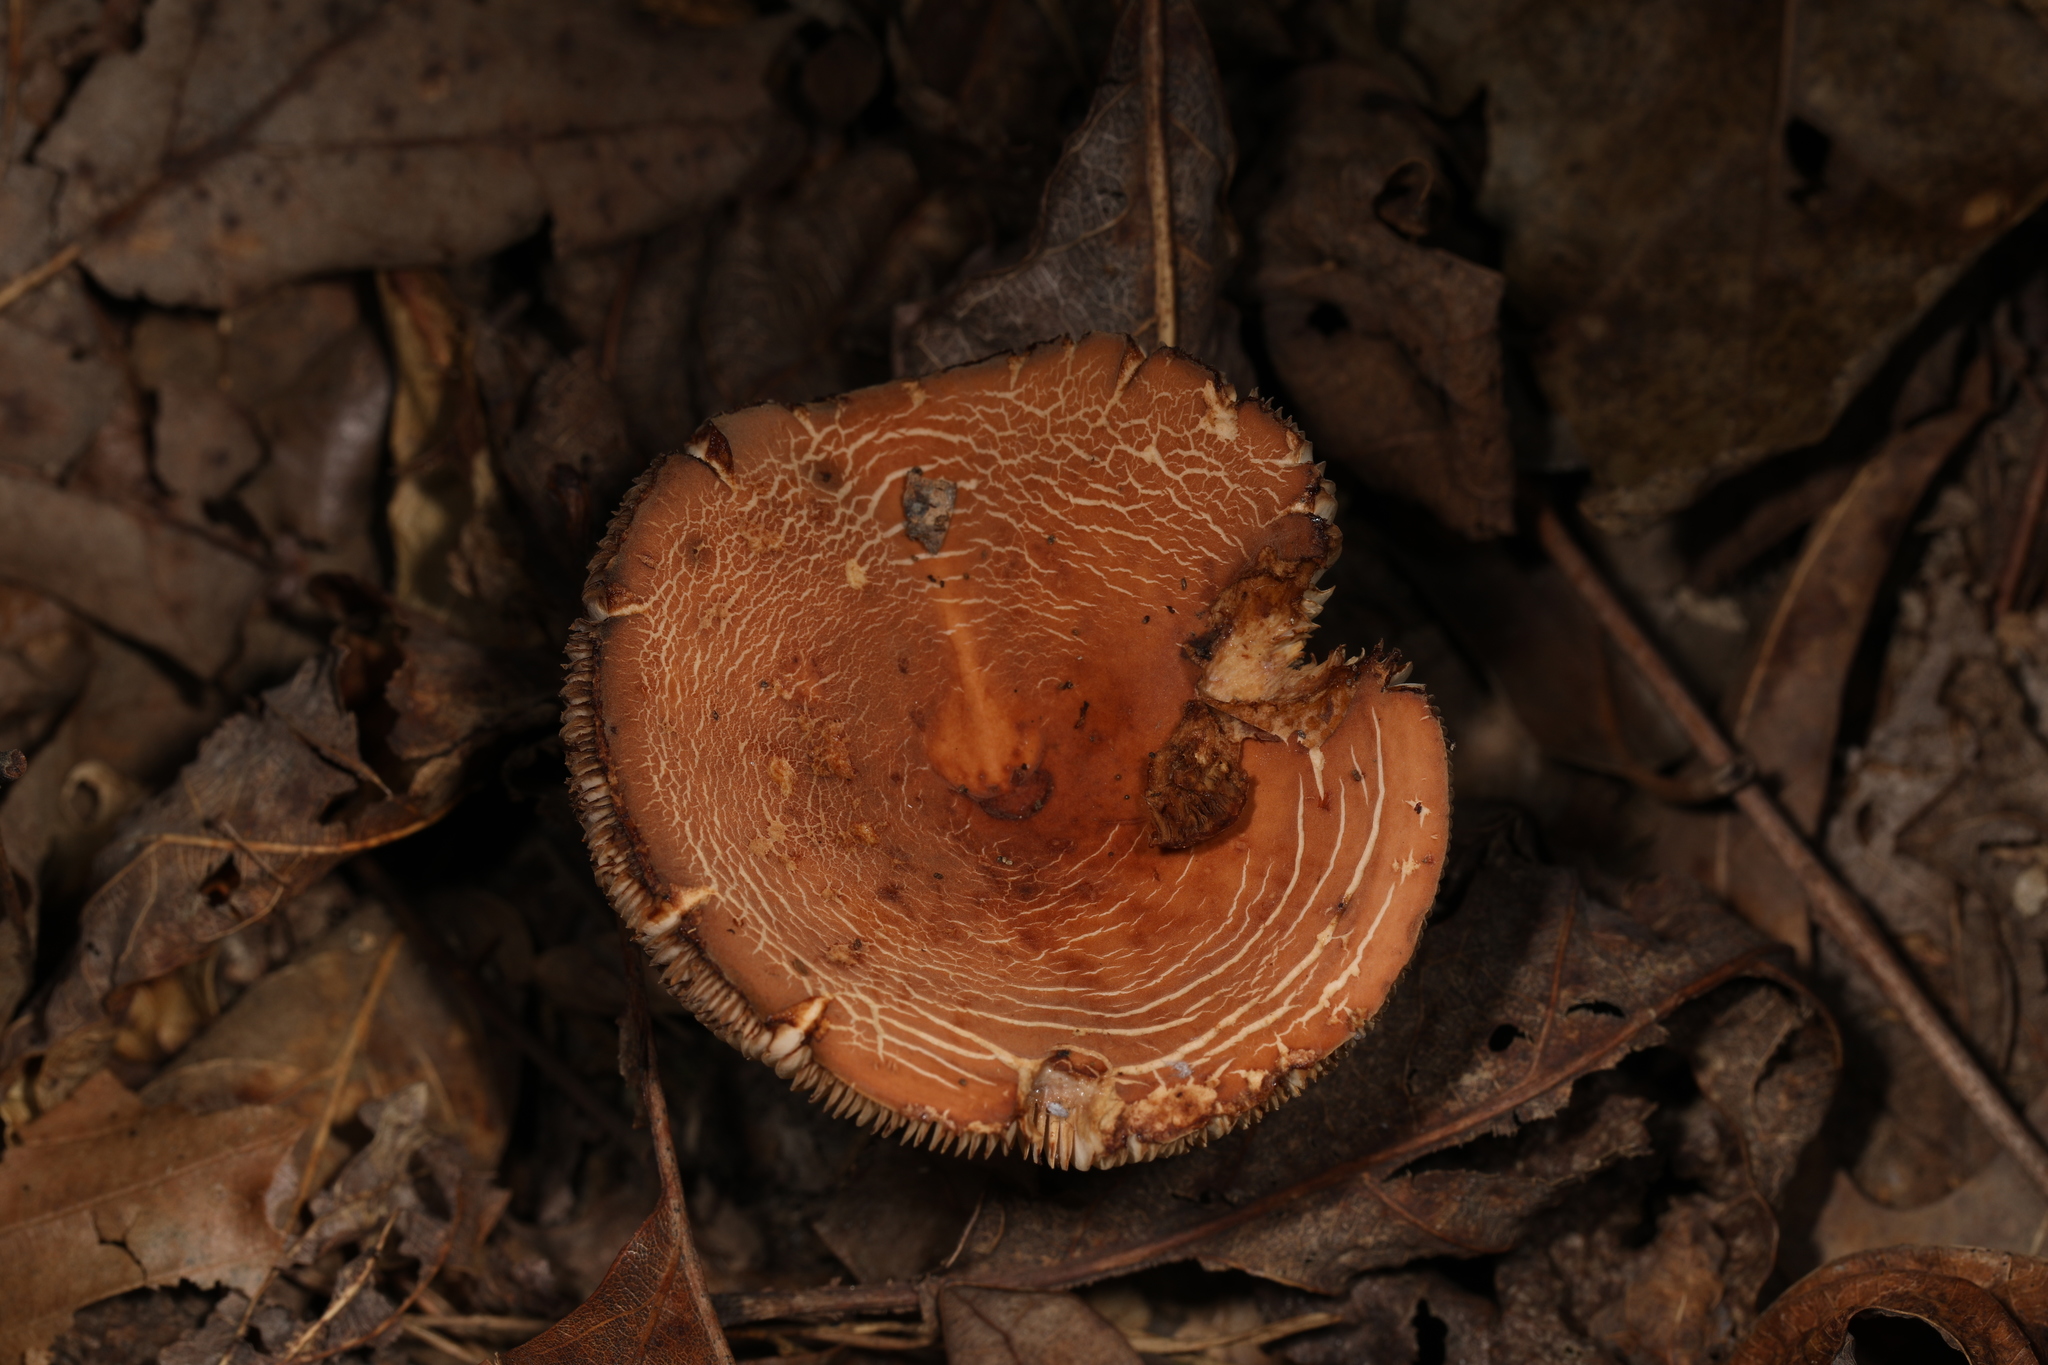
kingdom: Fungi
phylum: Basidiomycota
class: Agaricomycetes
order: Russulales
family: Russulaceae
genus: Lactifluus
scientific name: Lactifluus volemus
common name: Fishy milkcap
